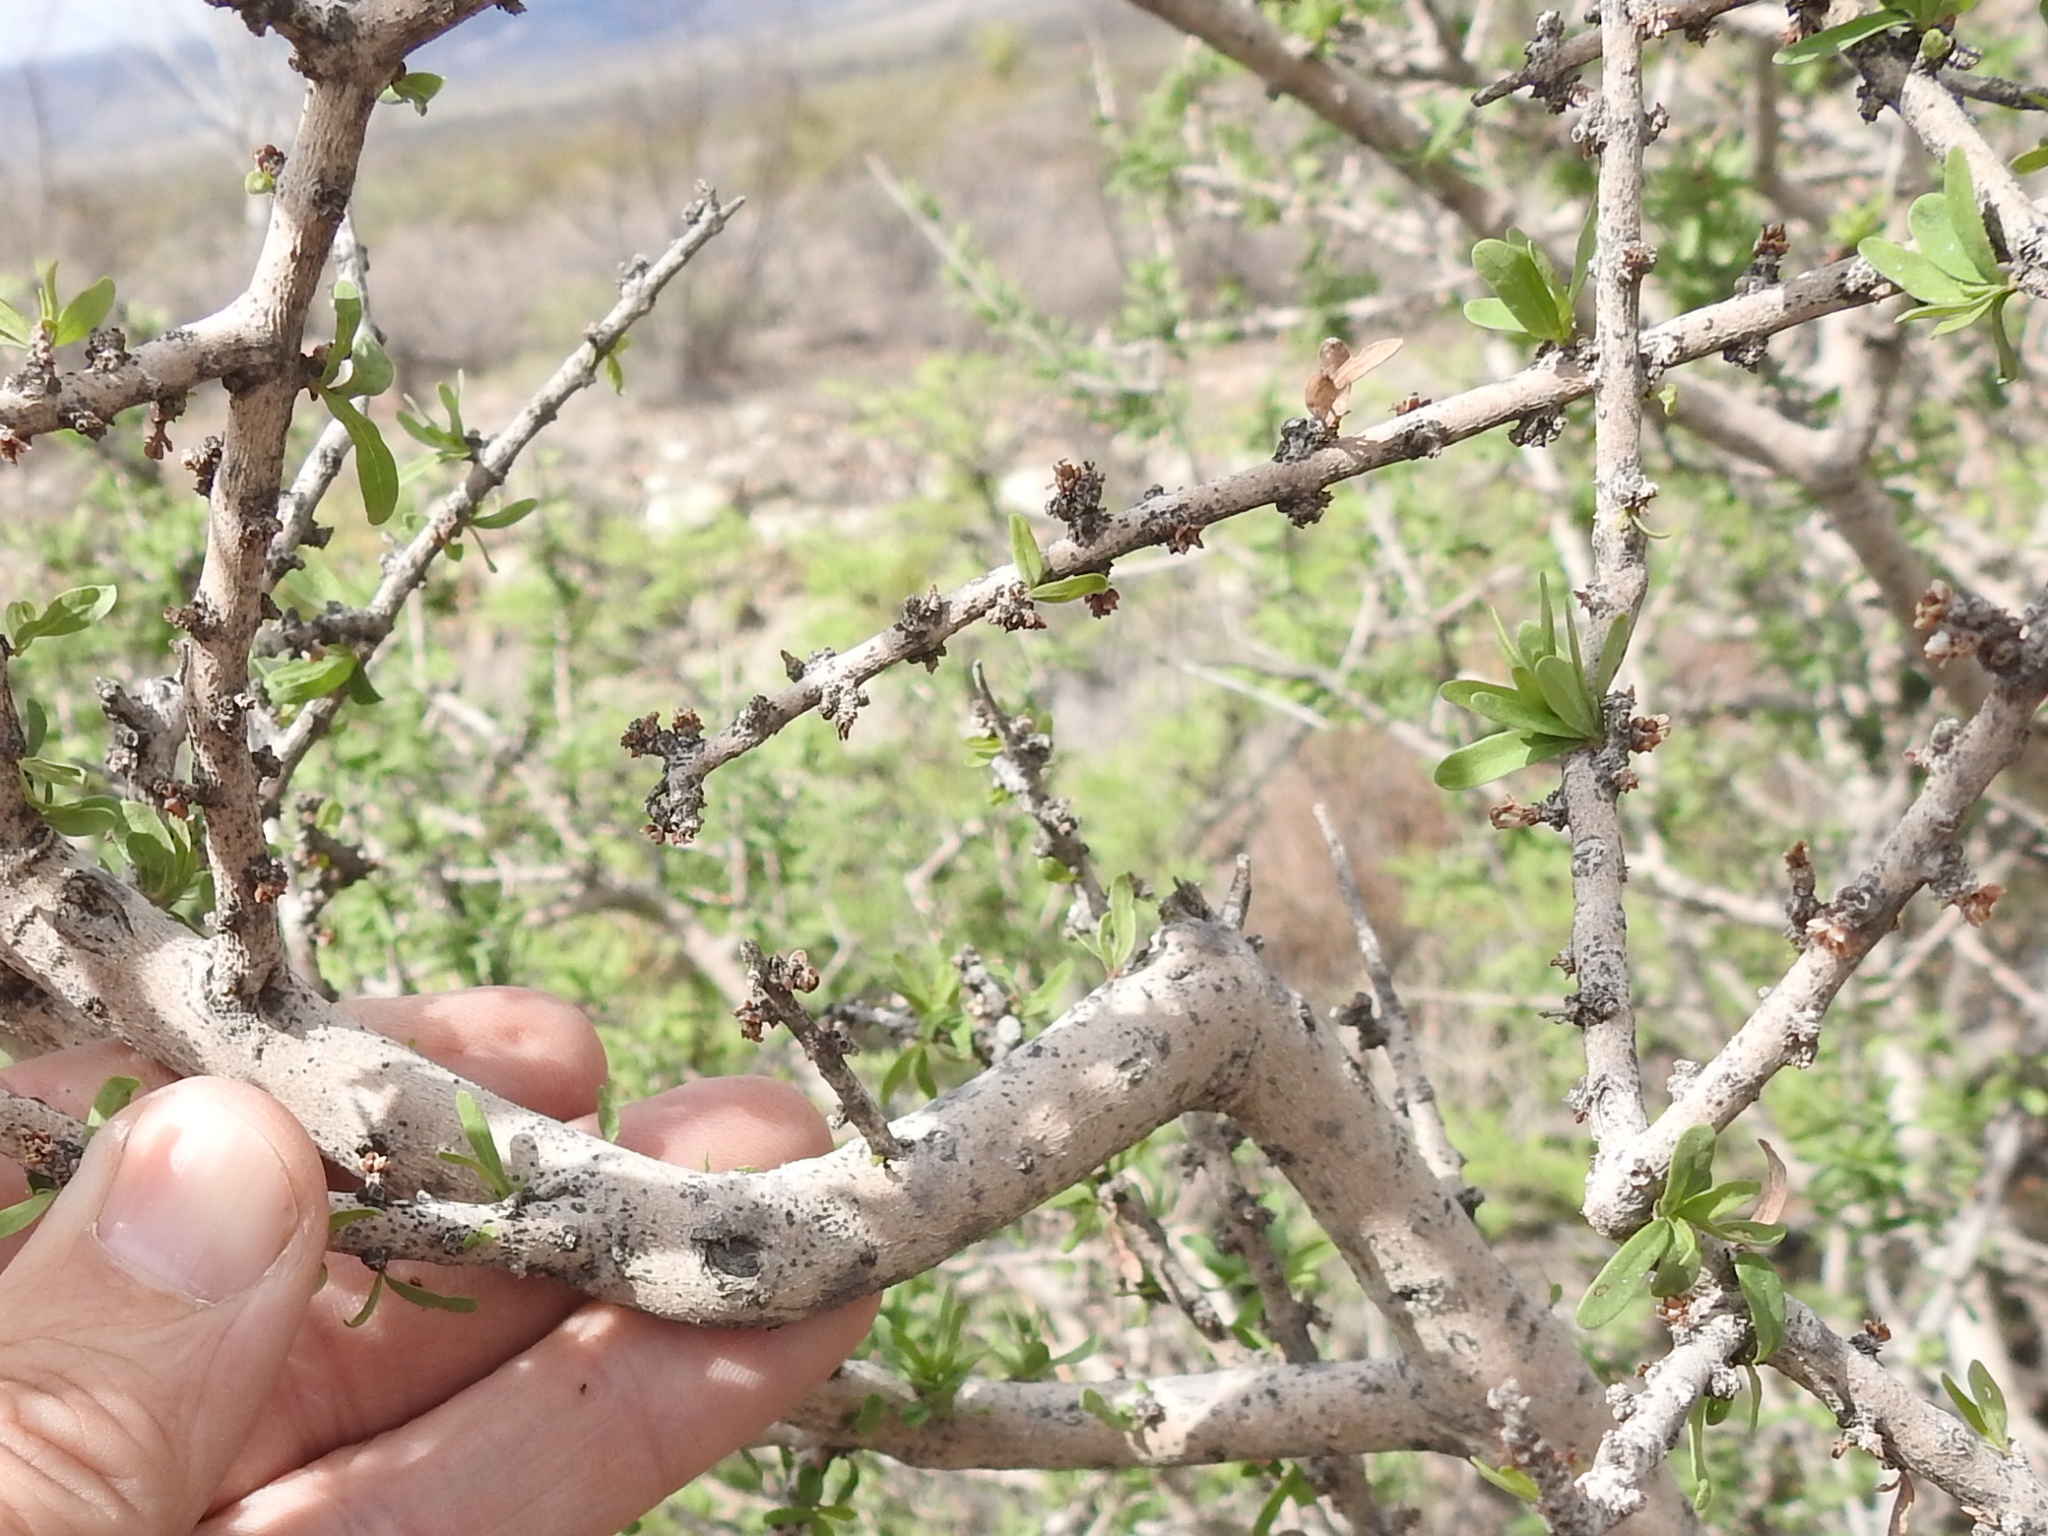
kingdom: Plantae
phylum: Tracheophyta
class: Magnoliopsida
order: Lamiales
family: Oleaceae
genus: Forestiera
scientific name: Forestiera angustifolia
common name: Elbowbush
